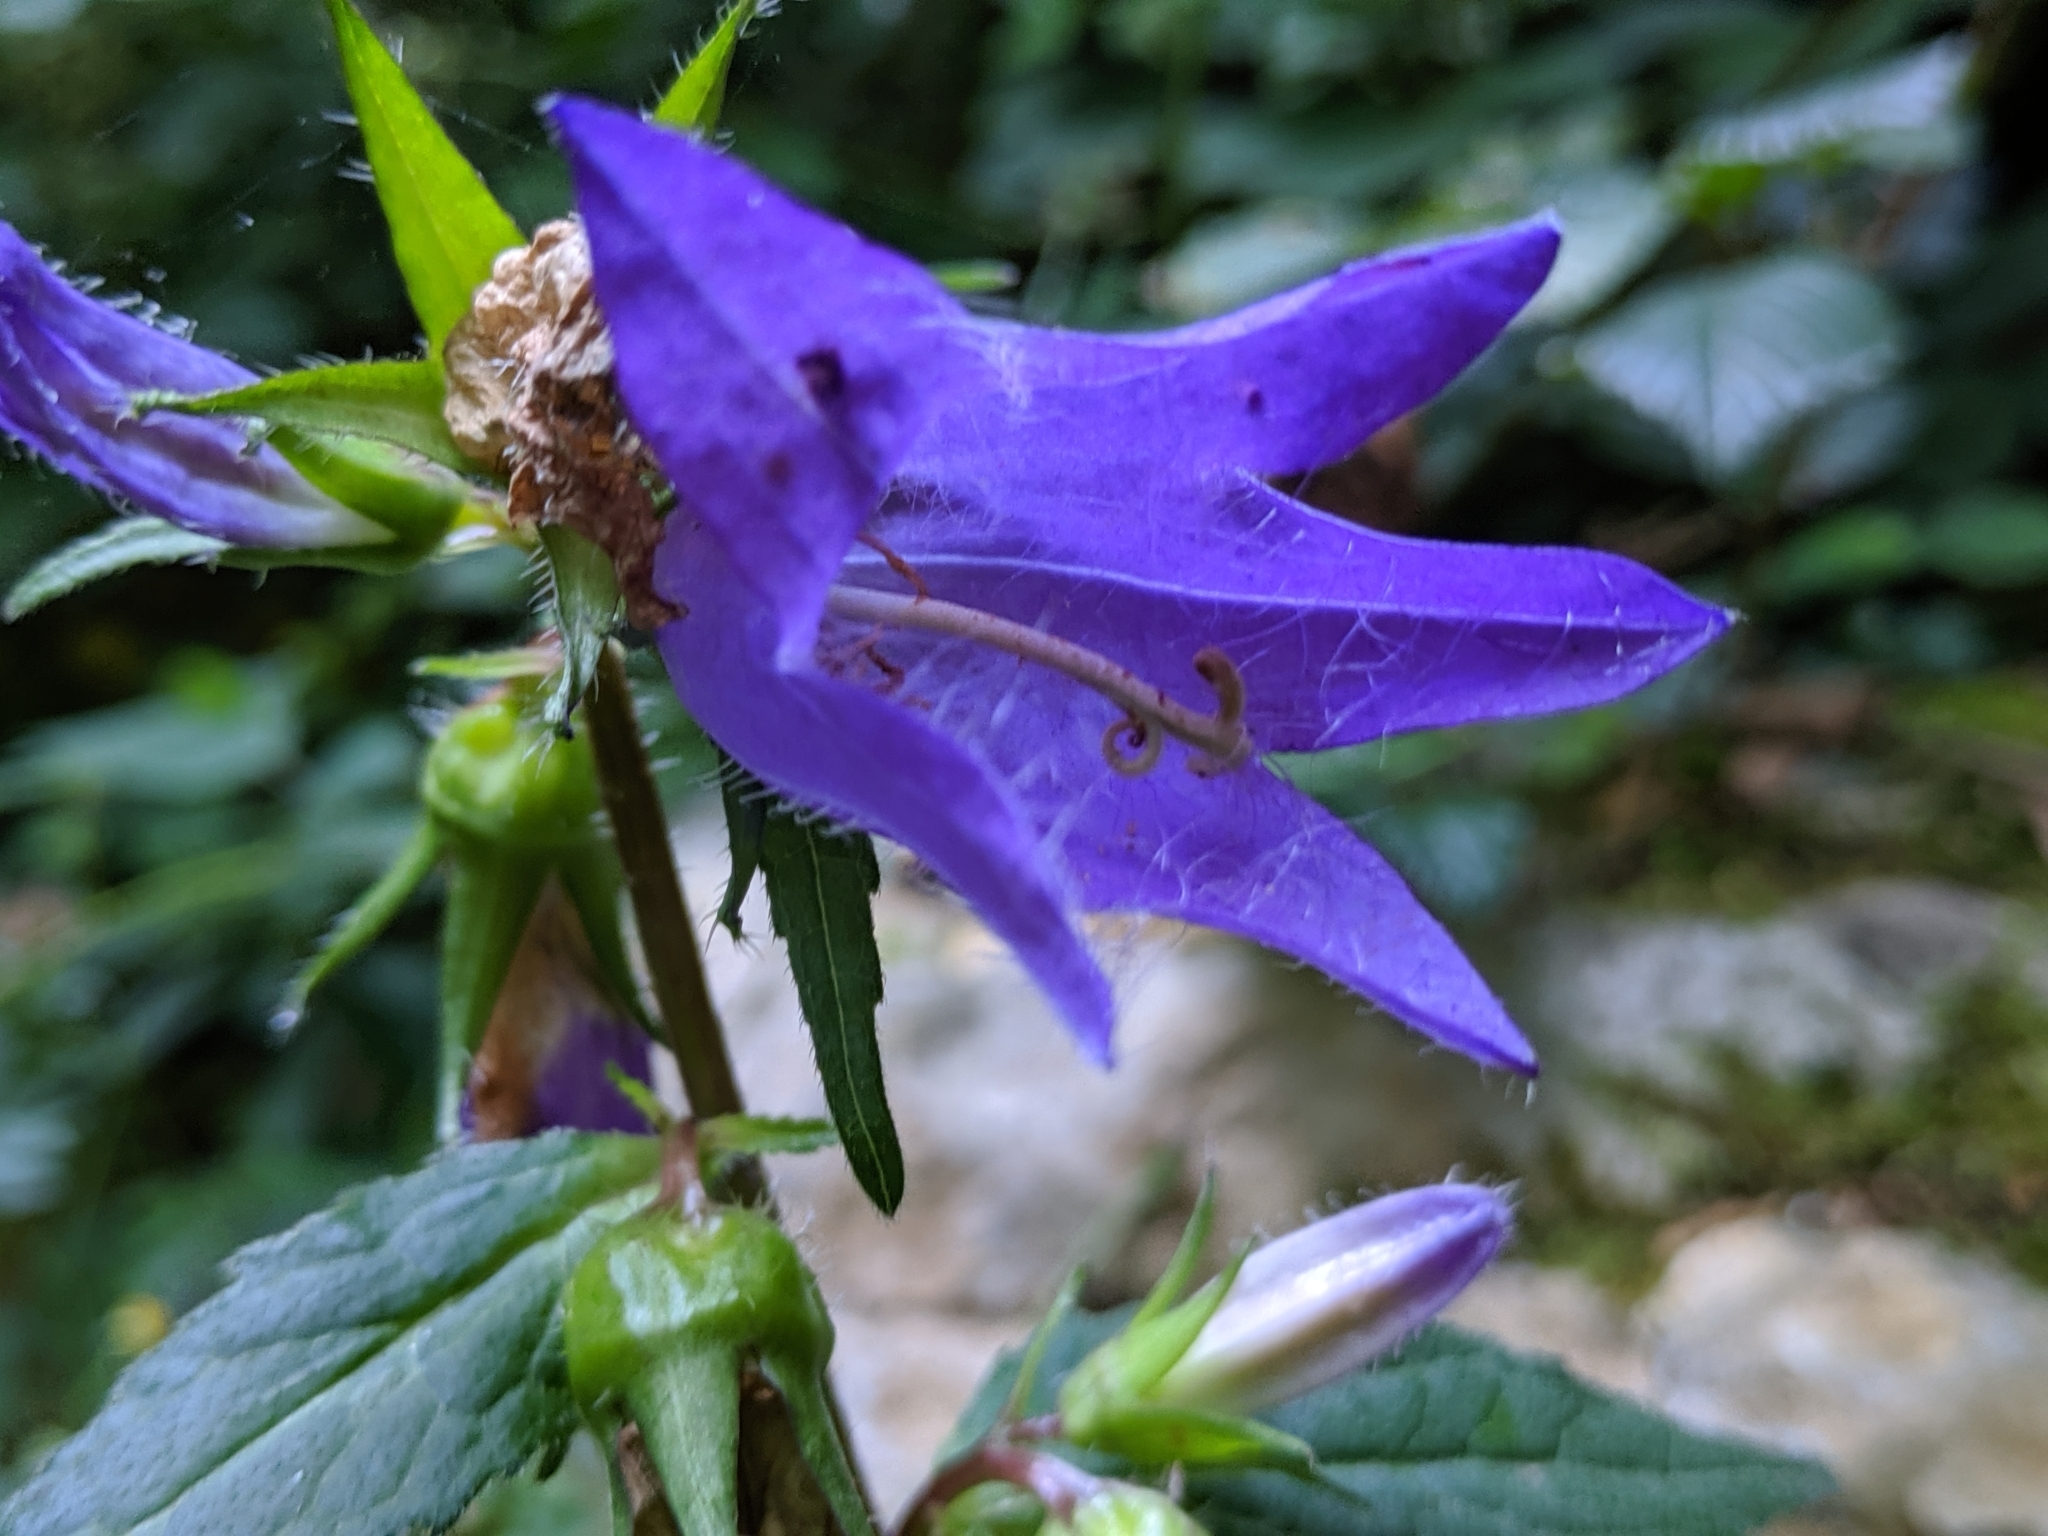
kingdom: Plantae
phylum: Tracheophyta
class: Magnoliopsida
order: Asterales
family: Campanulaceae
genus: Campanula
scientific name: Campanula trachelium
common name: Nettle-leaved bellflower
